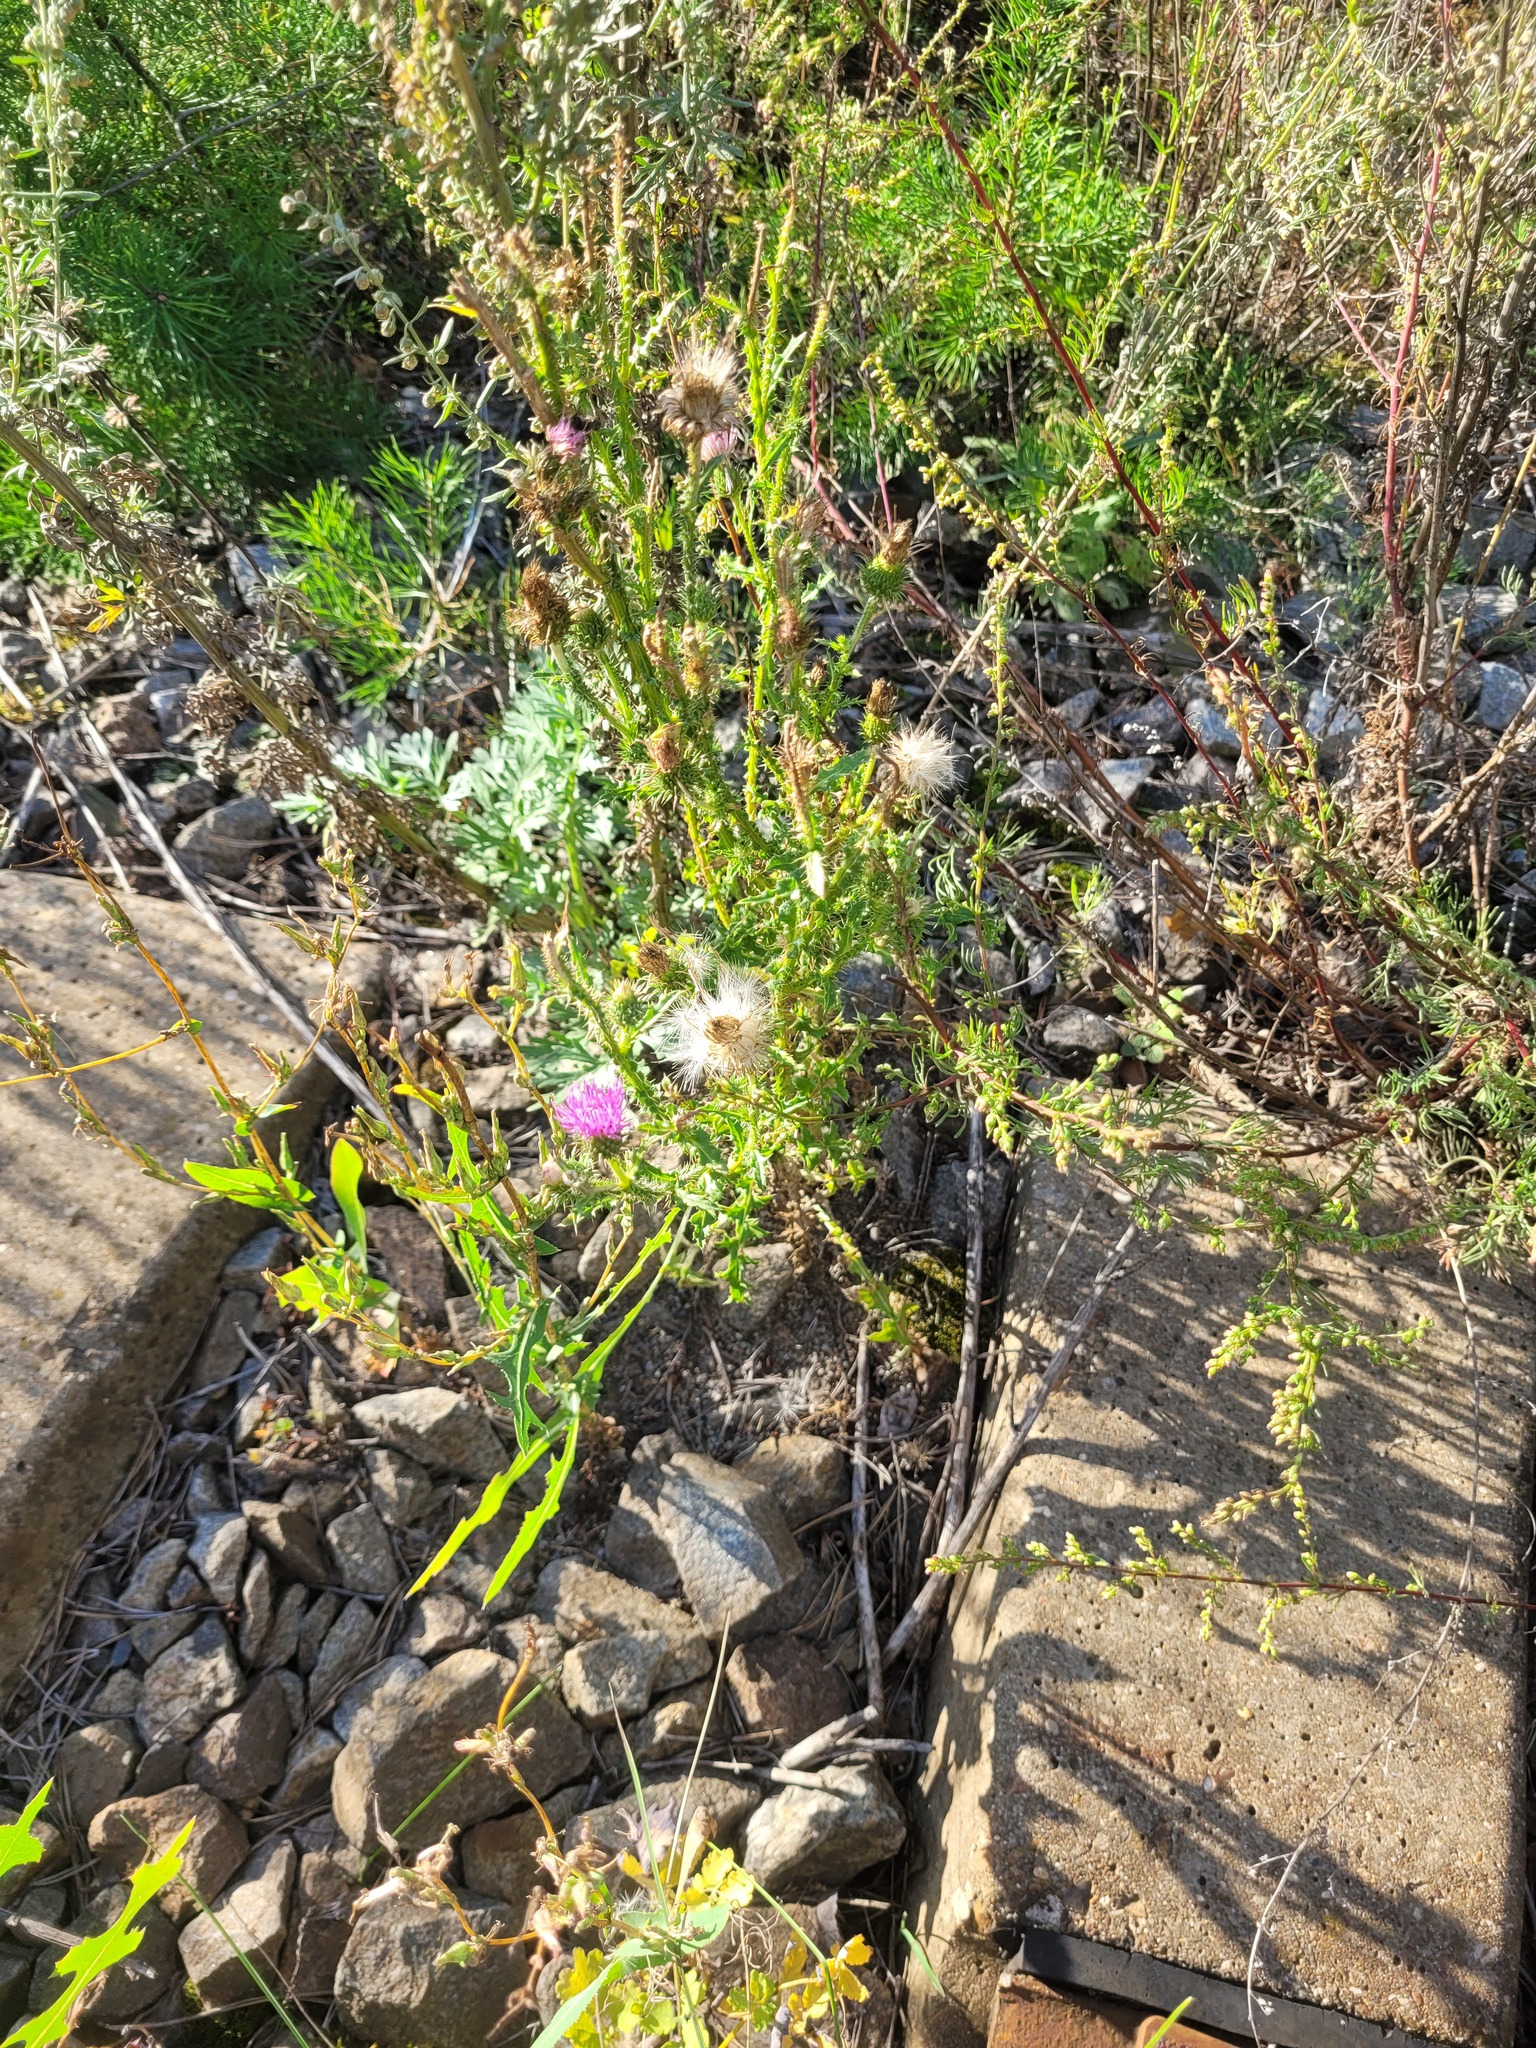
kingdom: Plantae
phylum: Tracheophyta
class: Magnoliopsida
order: Asterales
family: Asteraceae
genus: Carduus
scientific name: Carduus acanthoides
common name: Plumeless thistle
